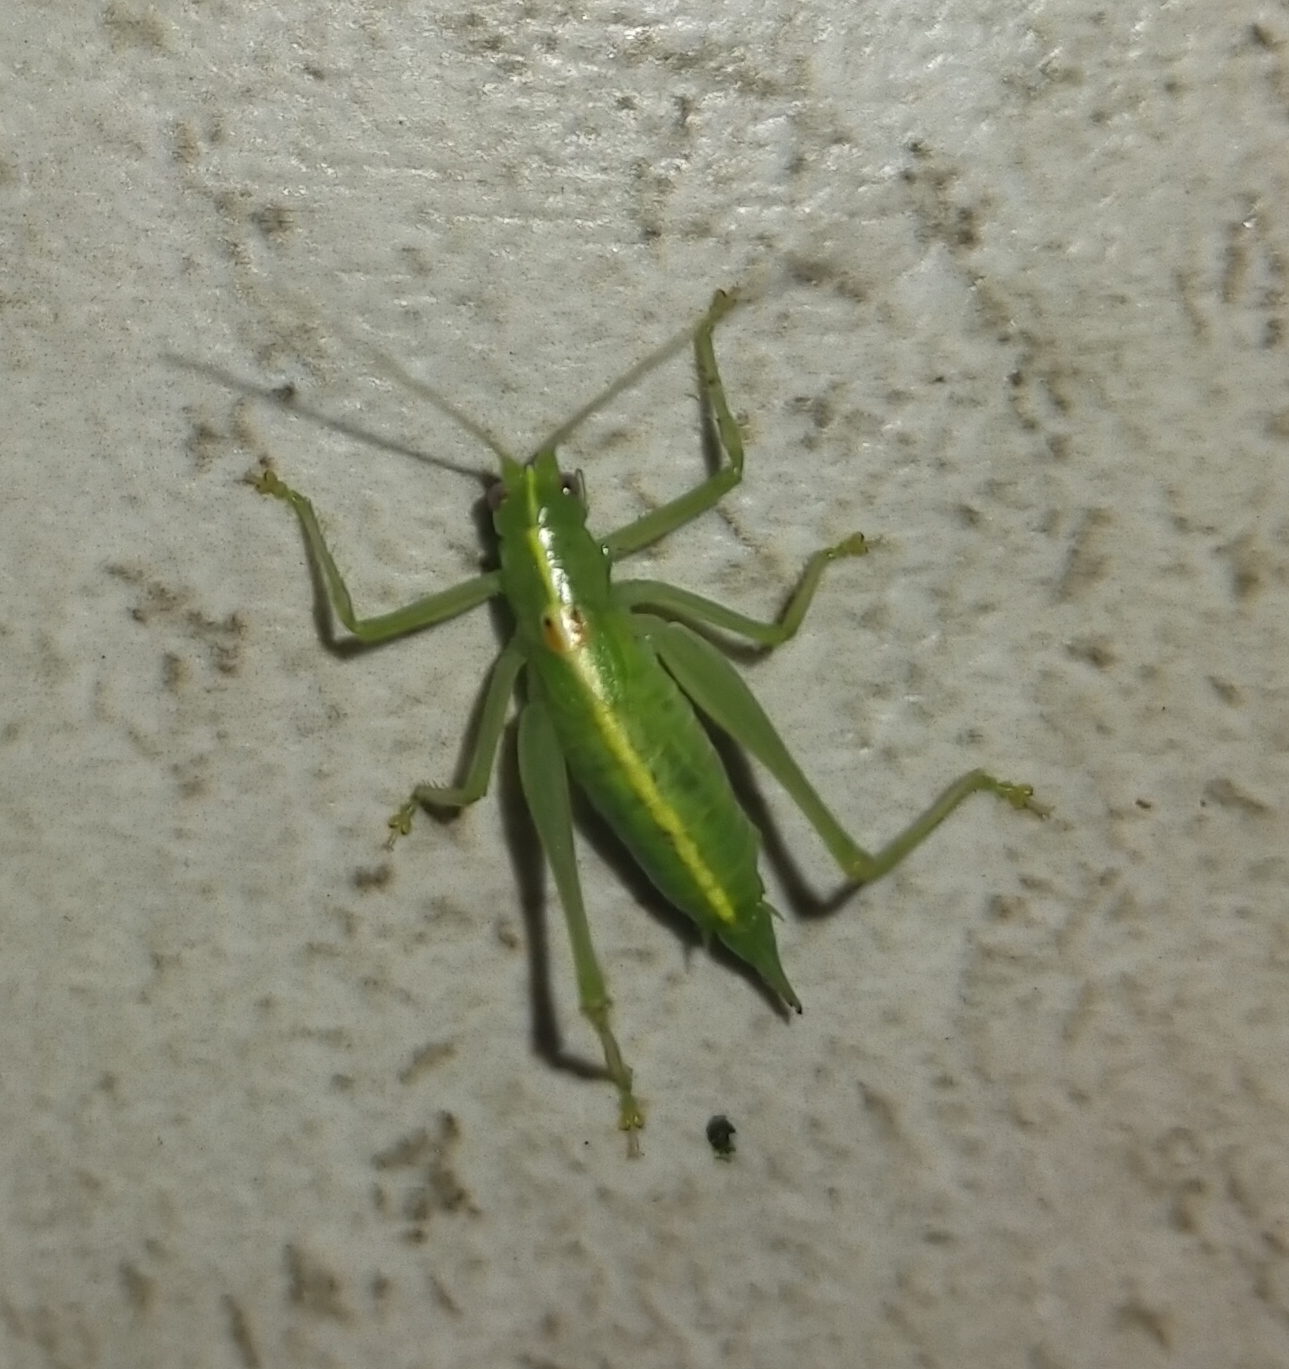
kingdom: Animalia
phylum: Arthropoda
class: Insecta
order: Orthoptera
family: Tettigoniidae
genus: Meconema
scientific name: Meconema meridionale
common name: Southern oak bush-cricket
